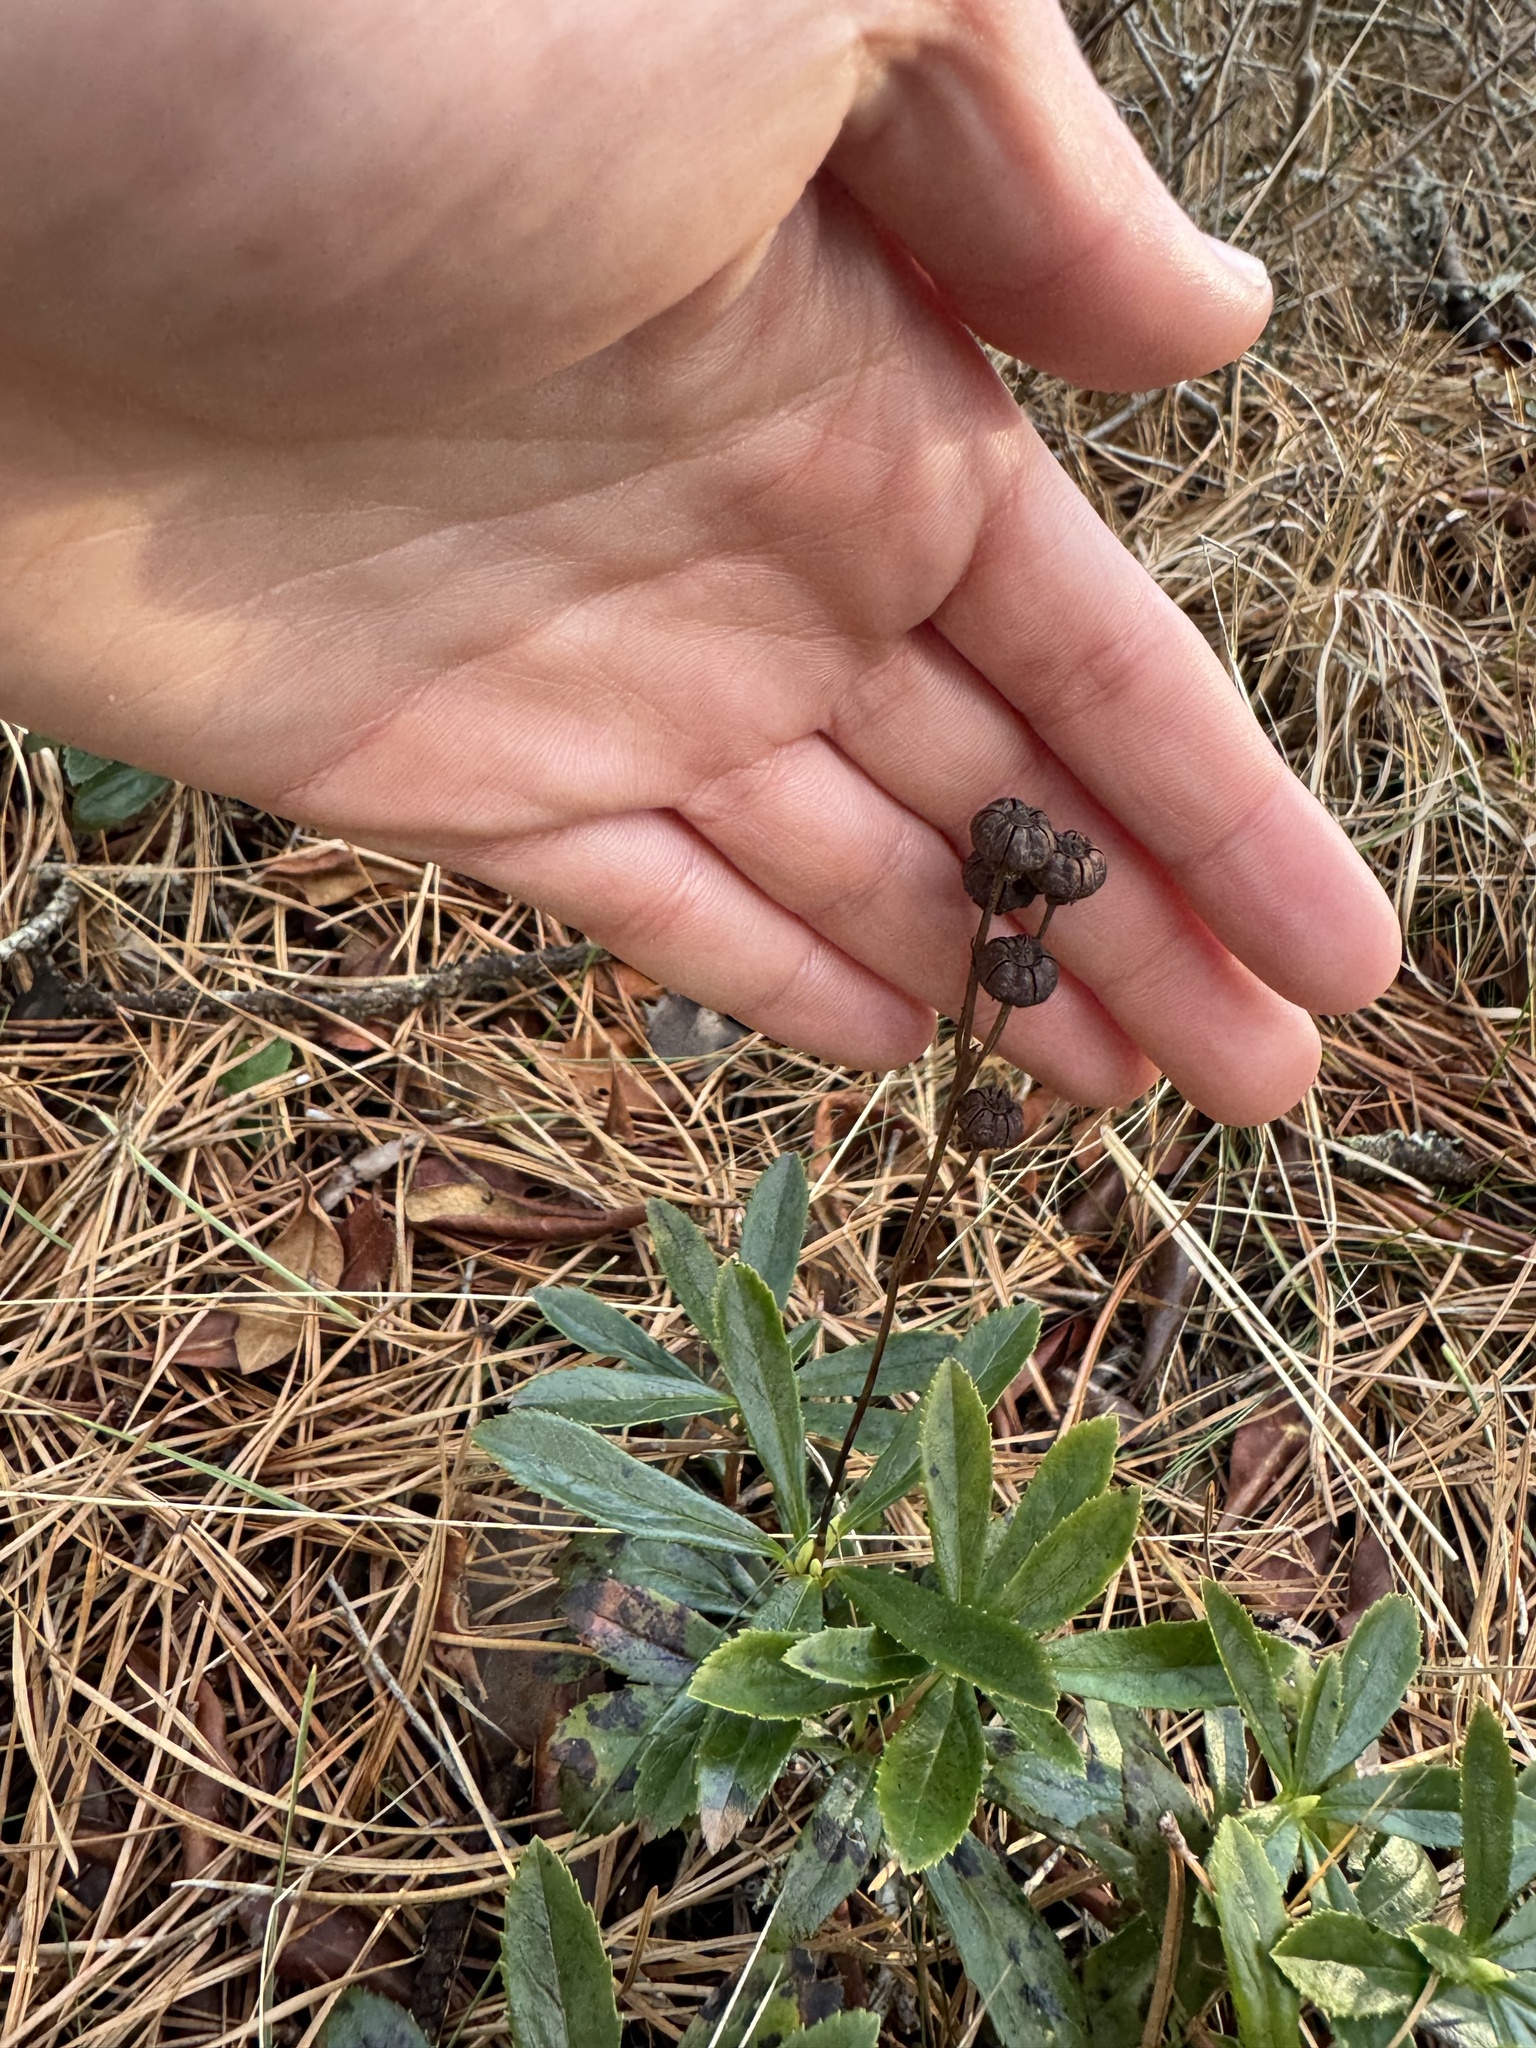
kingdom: Plantae
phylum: Tracheophyta
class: Magnoliopsida
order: Ericales
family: Ericaceae
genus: Chimaphila
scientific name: Chimaphila umbellata
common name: Pipsissewa
